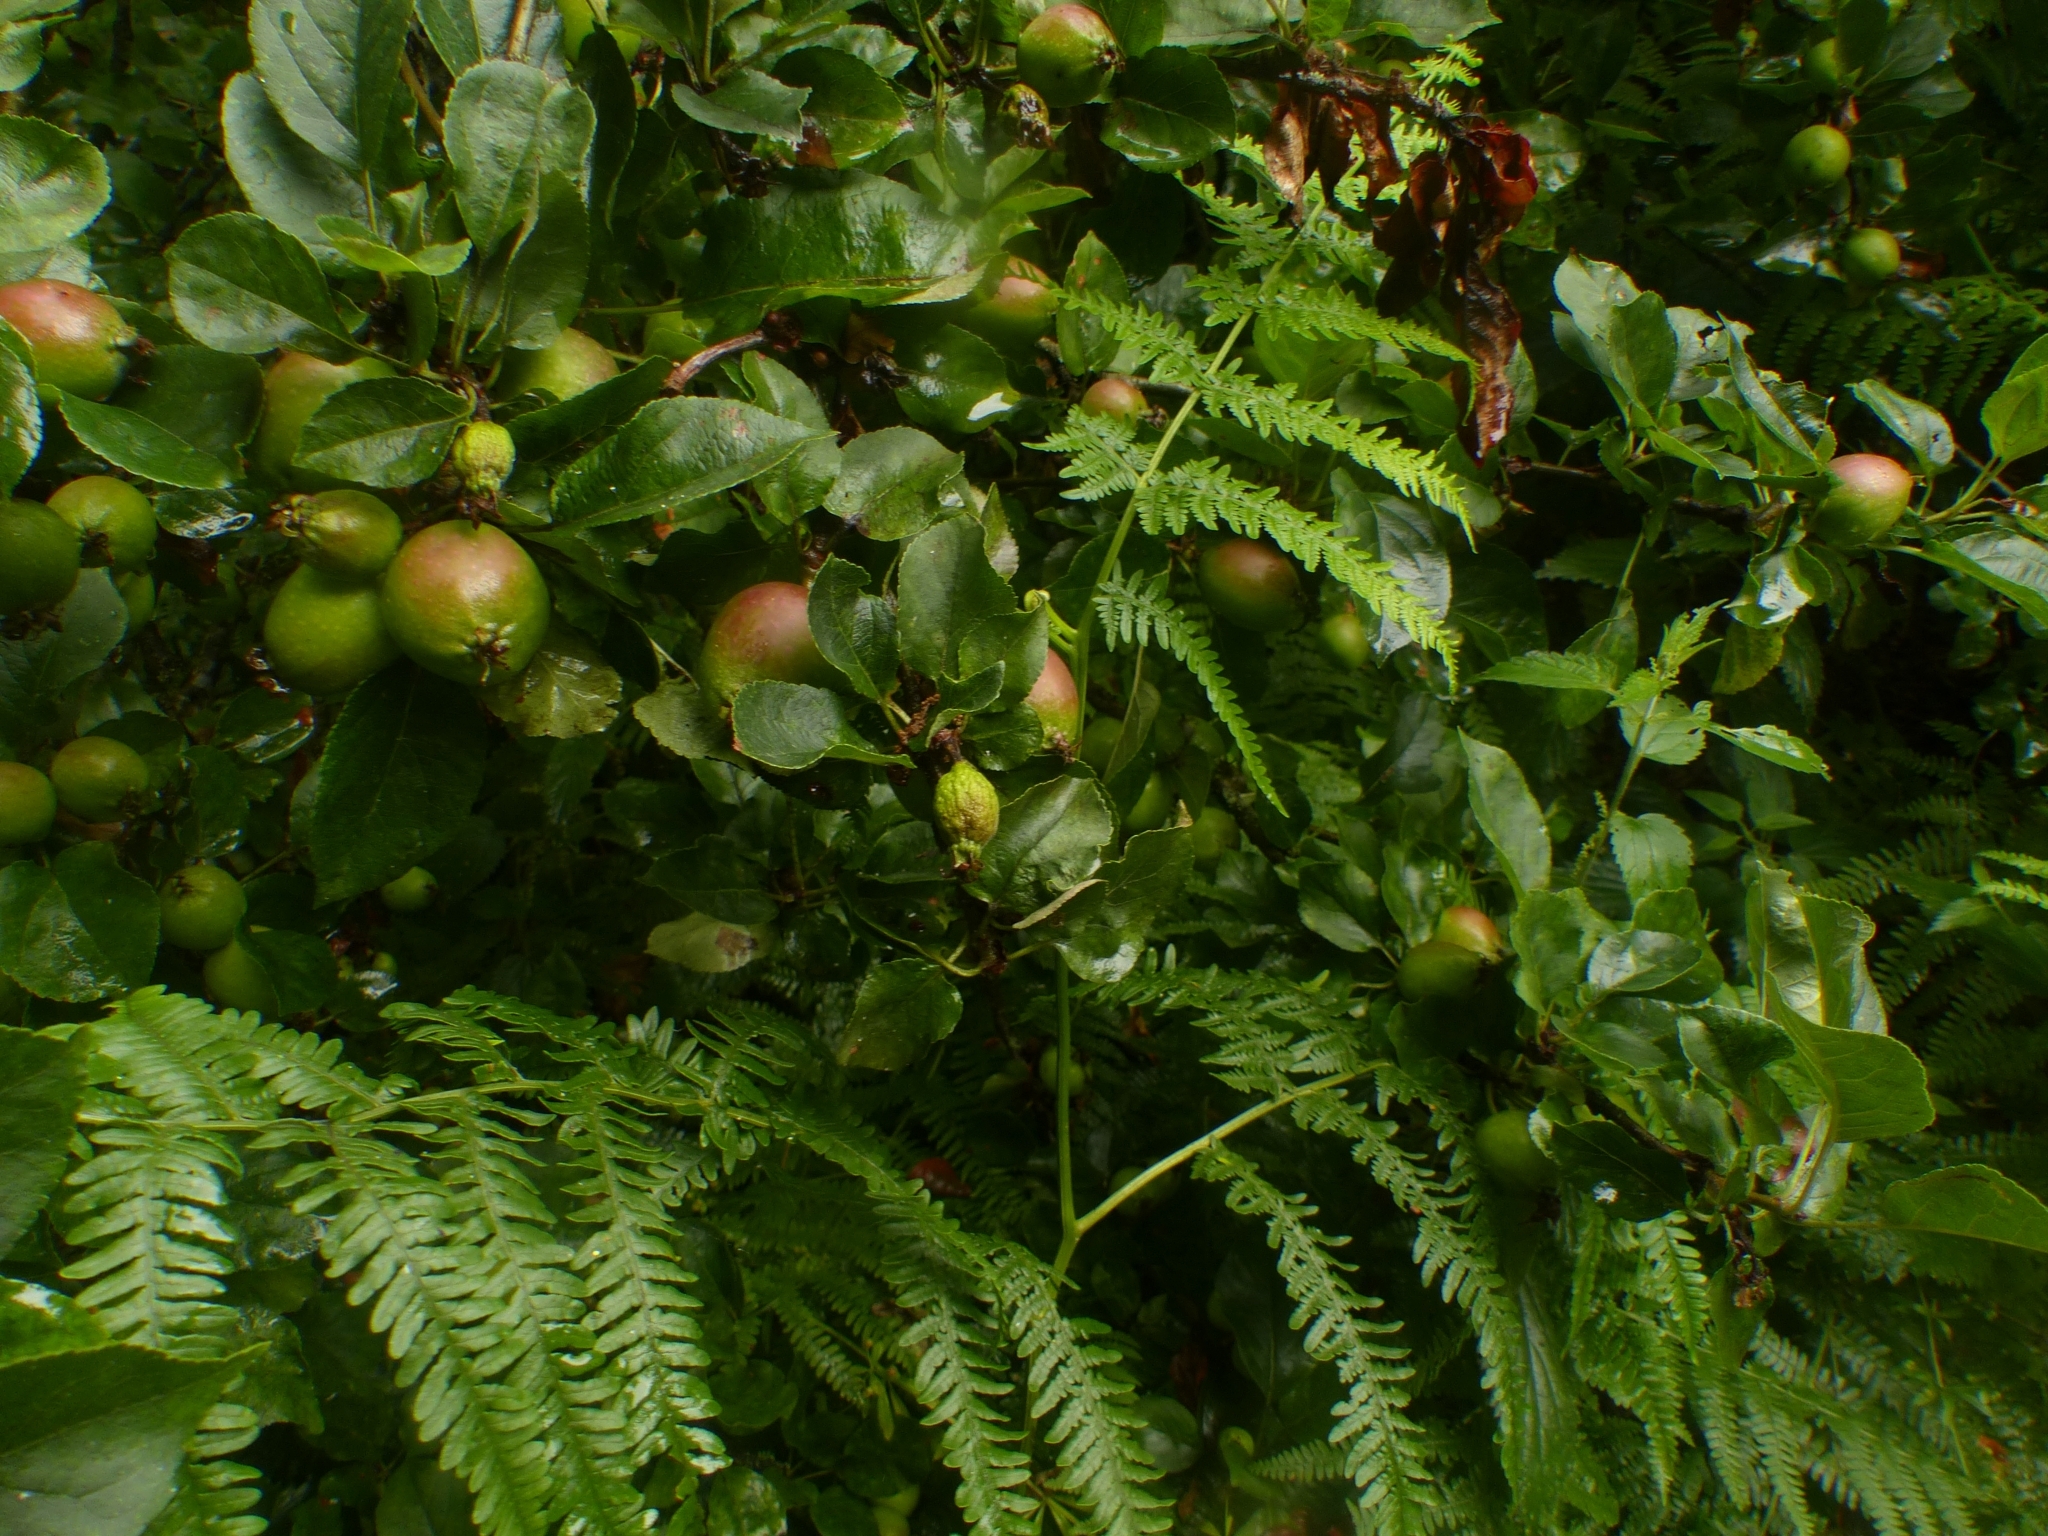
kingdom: Plantae
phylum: Tracheophyta
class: Magnoliopsida
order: Rosales
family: Rosaceae
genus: Malus
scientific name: Malus domestica
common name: Apple
